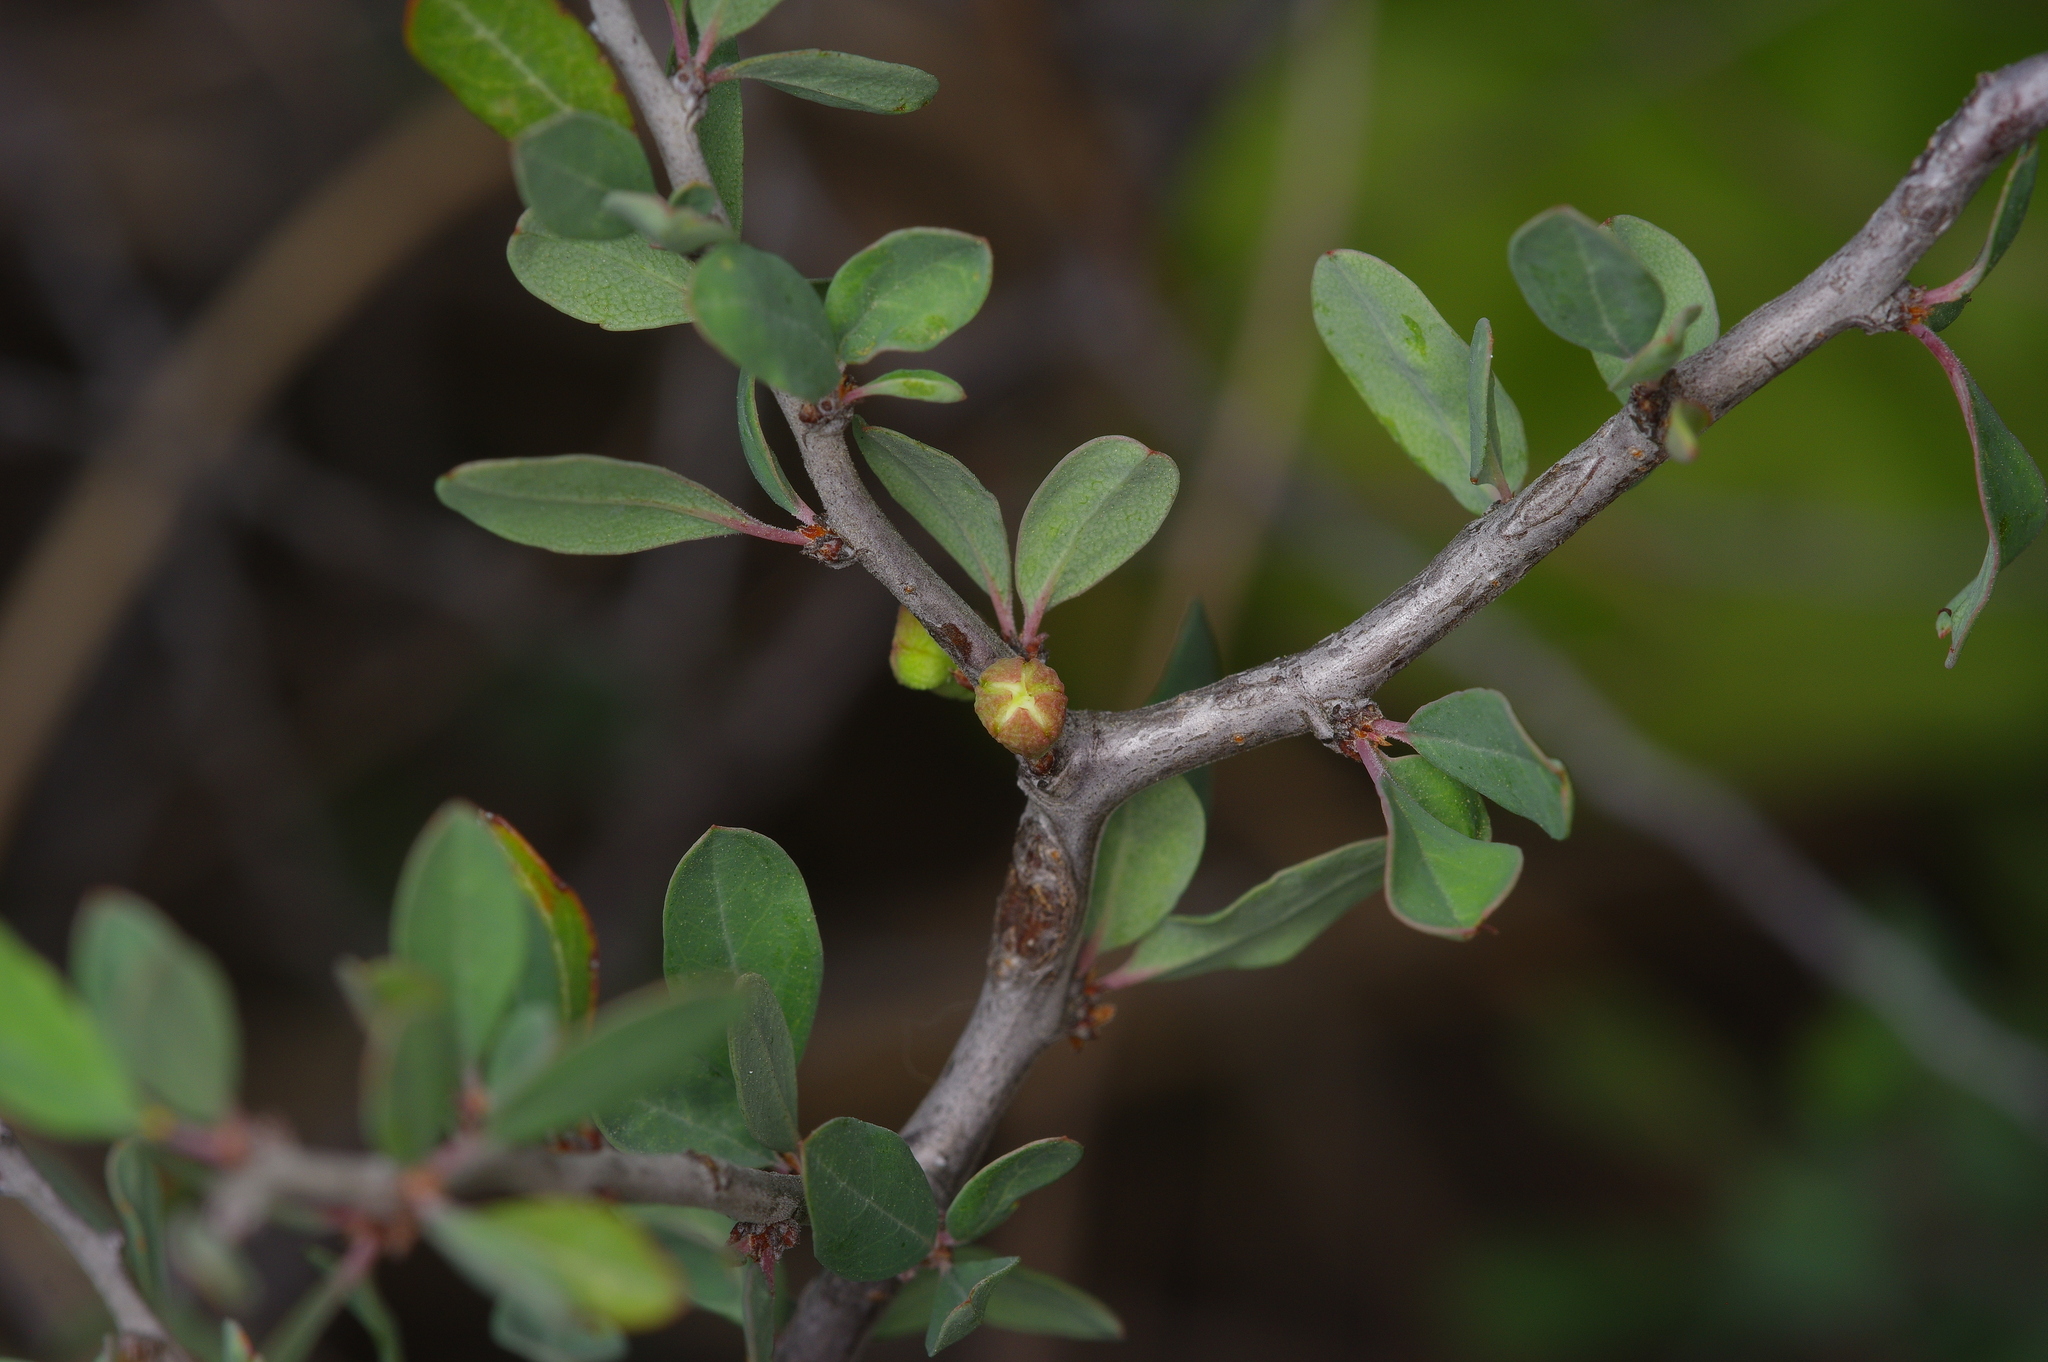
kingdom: Plantae
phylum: Tracheophyta
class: Magnoliopsida
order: Rosales
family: Rosaceae
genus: Prunus
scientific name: Prunus minutiflora
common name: Texas almond
